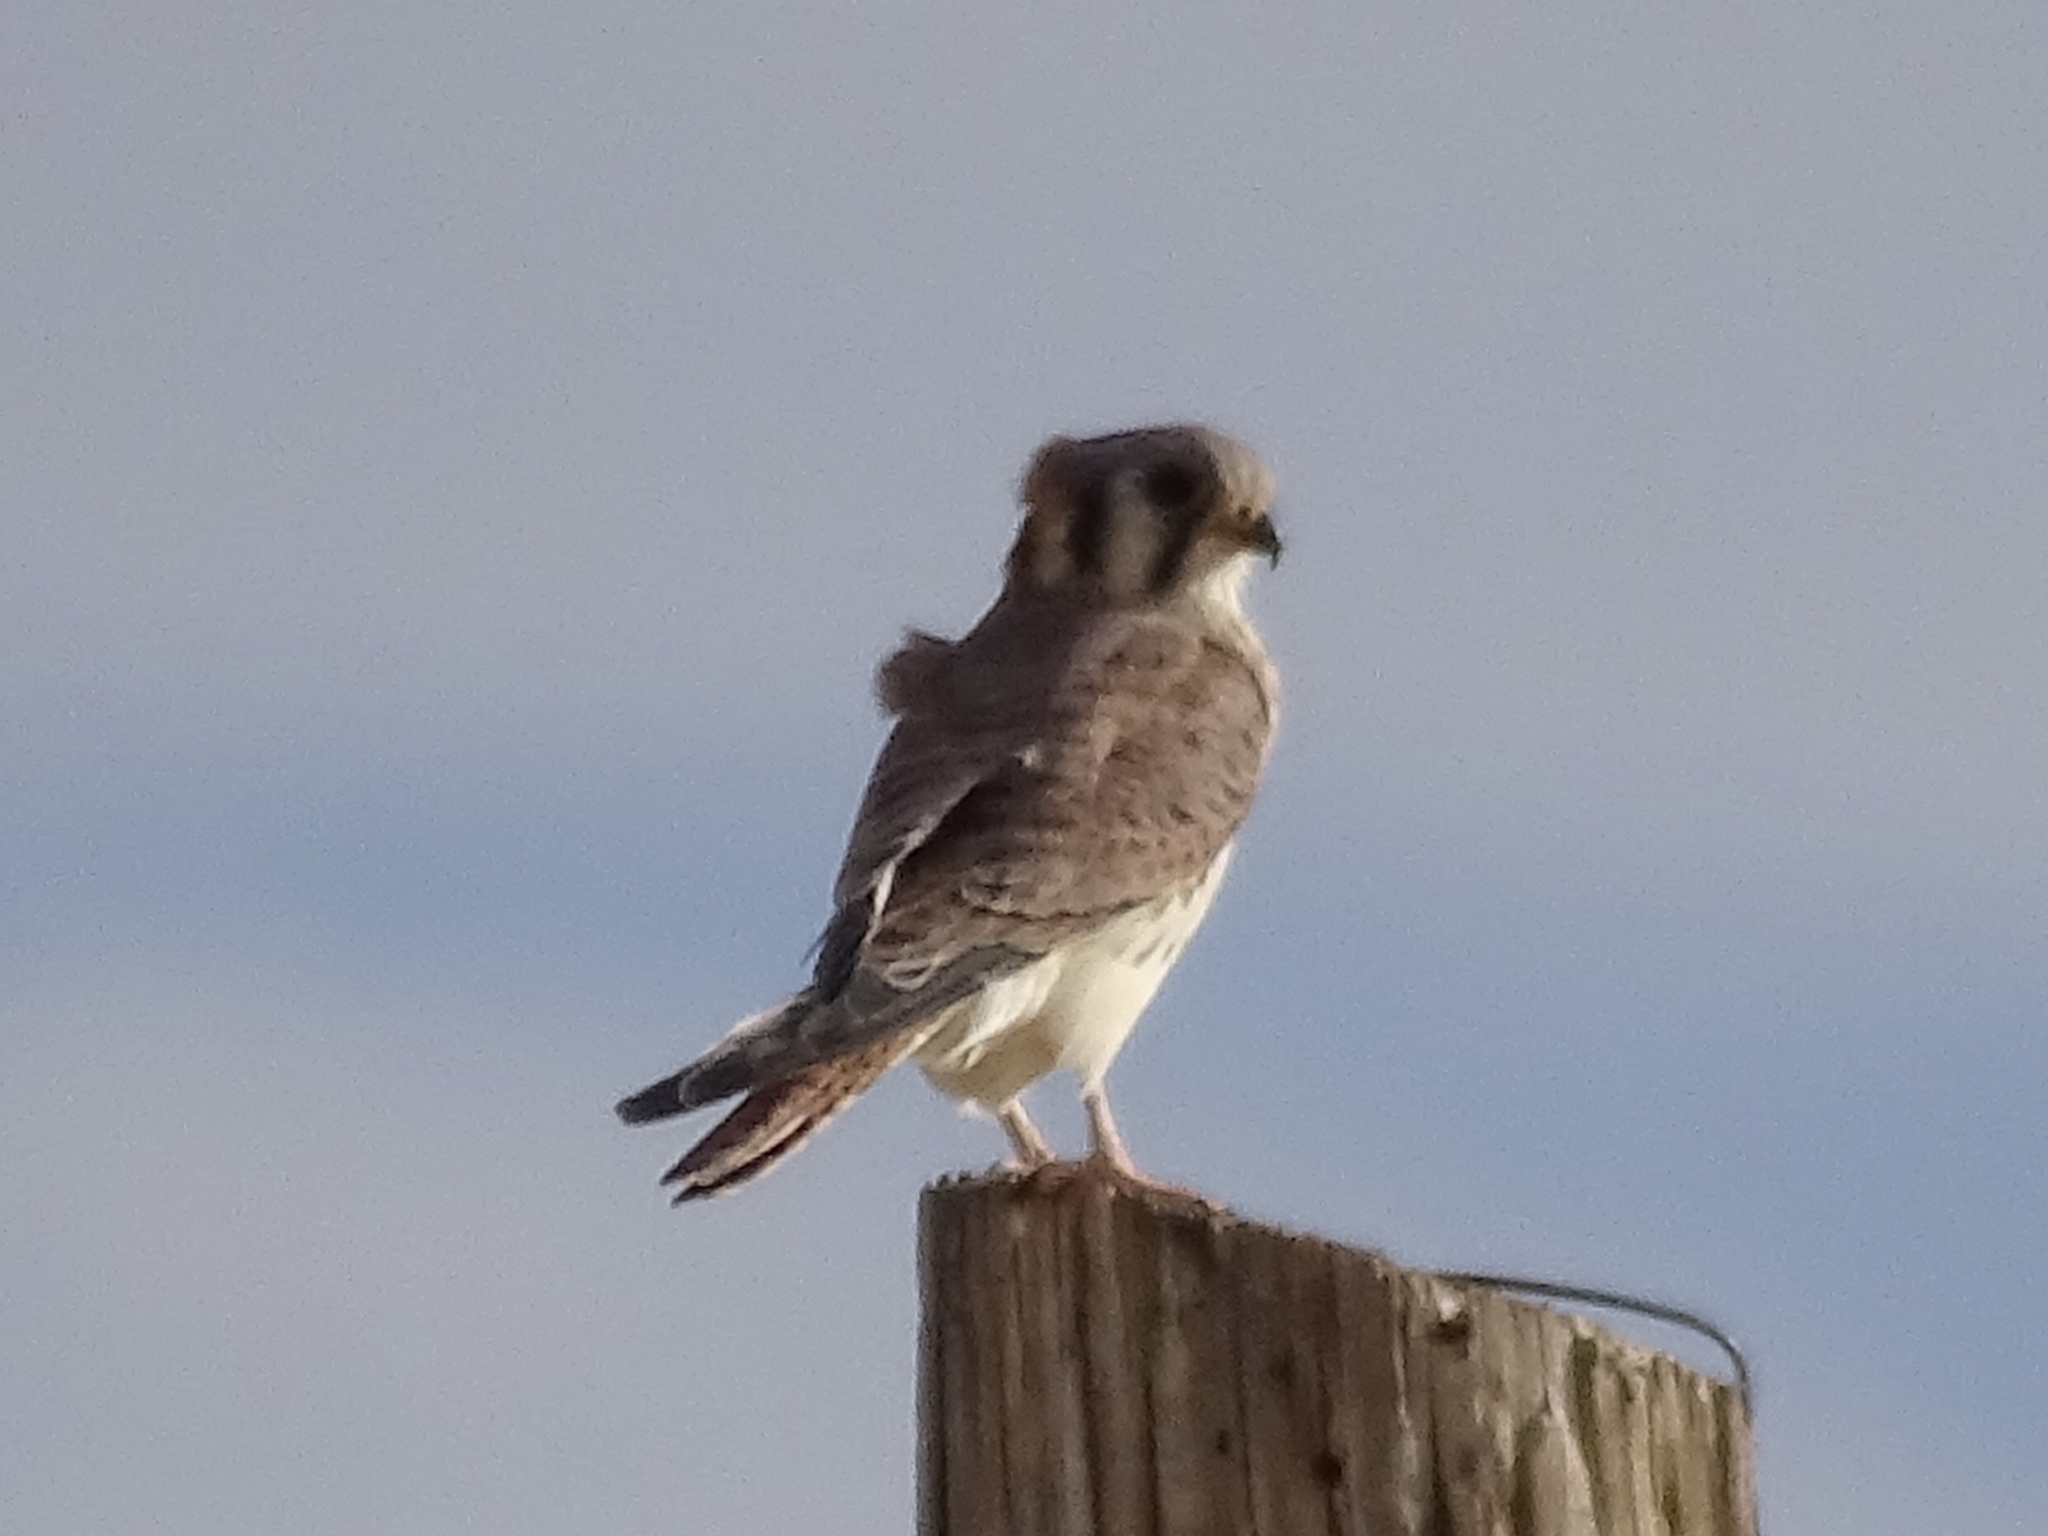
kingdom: Animalia
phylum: Chordata
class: Aves
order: Falconiformes
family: Falconidae
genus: Falco
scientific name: Falco sparverius
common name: American kestrel
